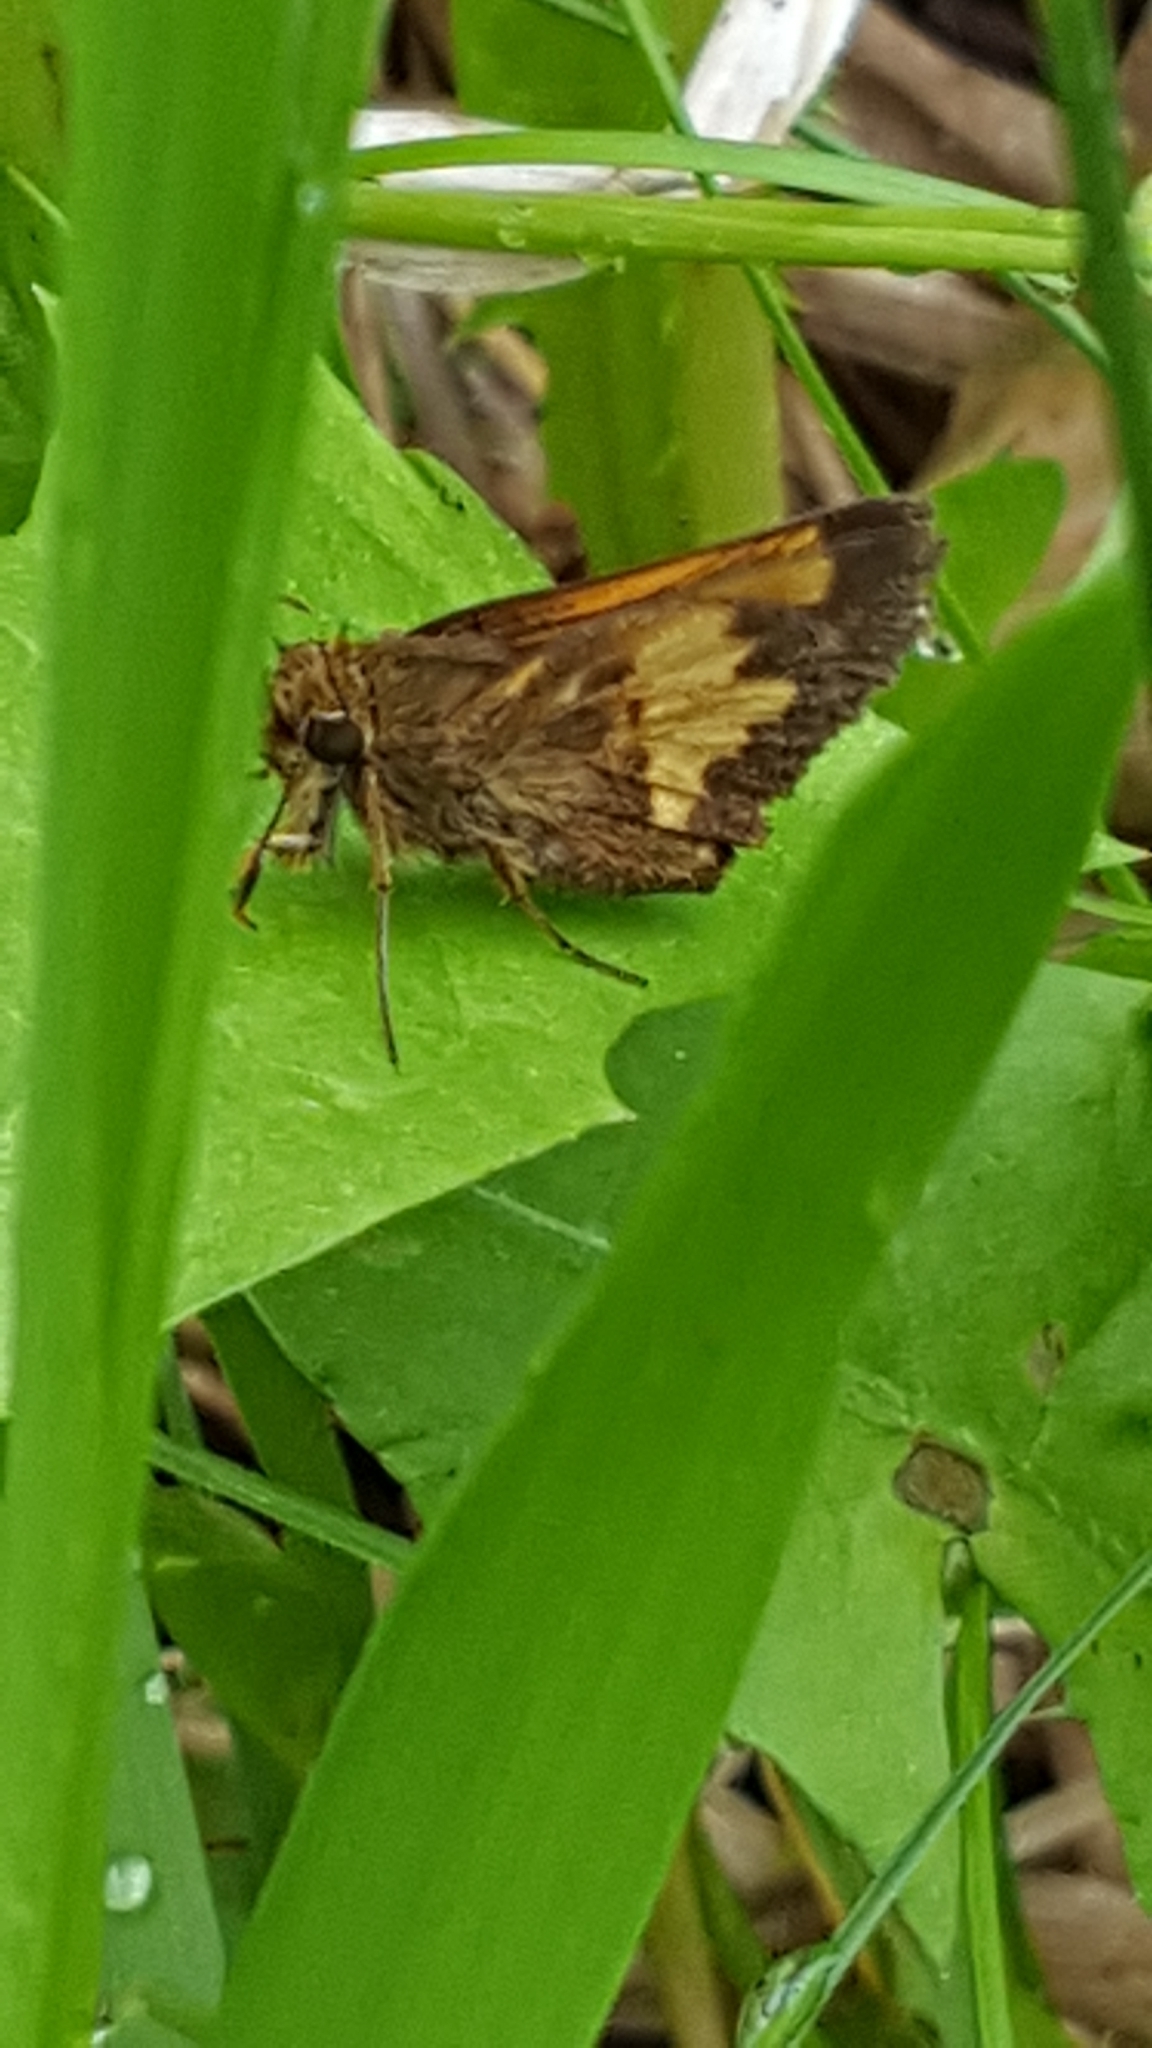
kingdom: Animalia
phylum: Arthropoda
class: Insecta
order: Lepidoptera
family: Hesperiidae
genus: Lon
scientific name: Lon hobomok
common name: Hobomok skipper
